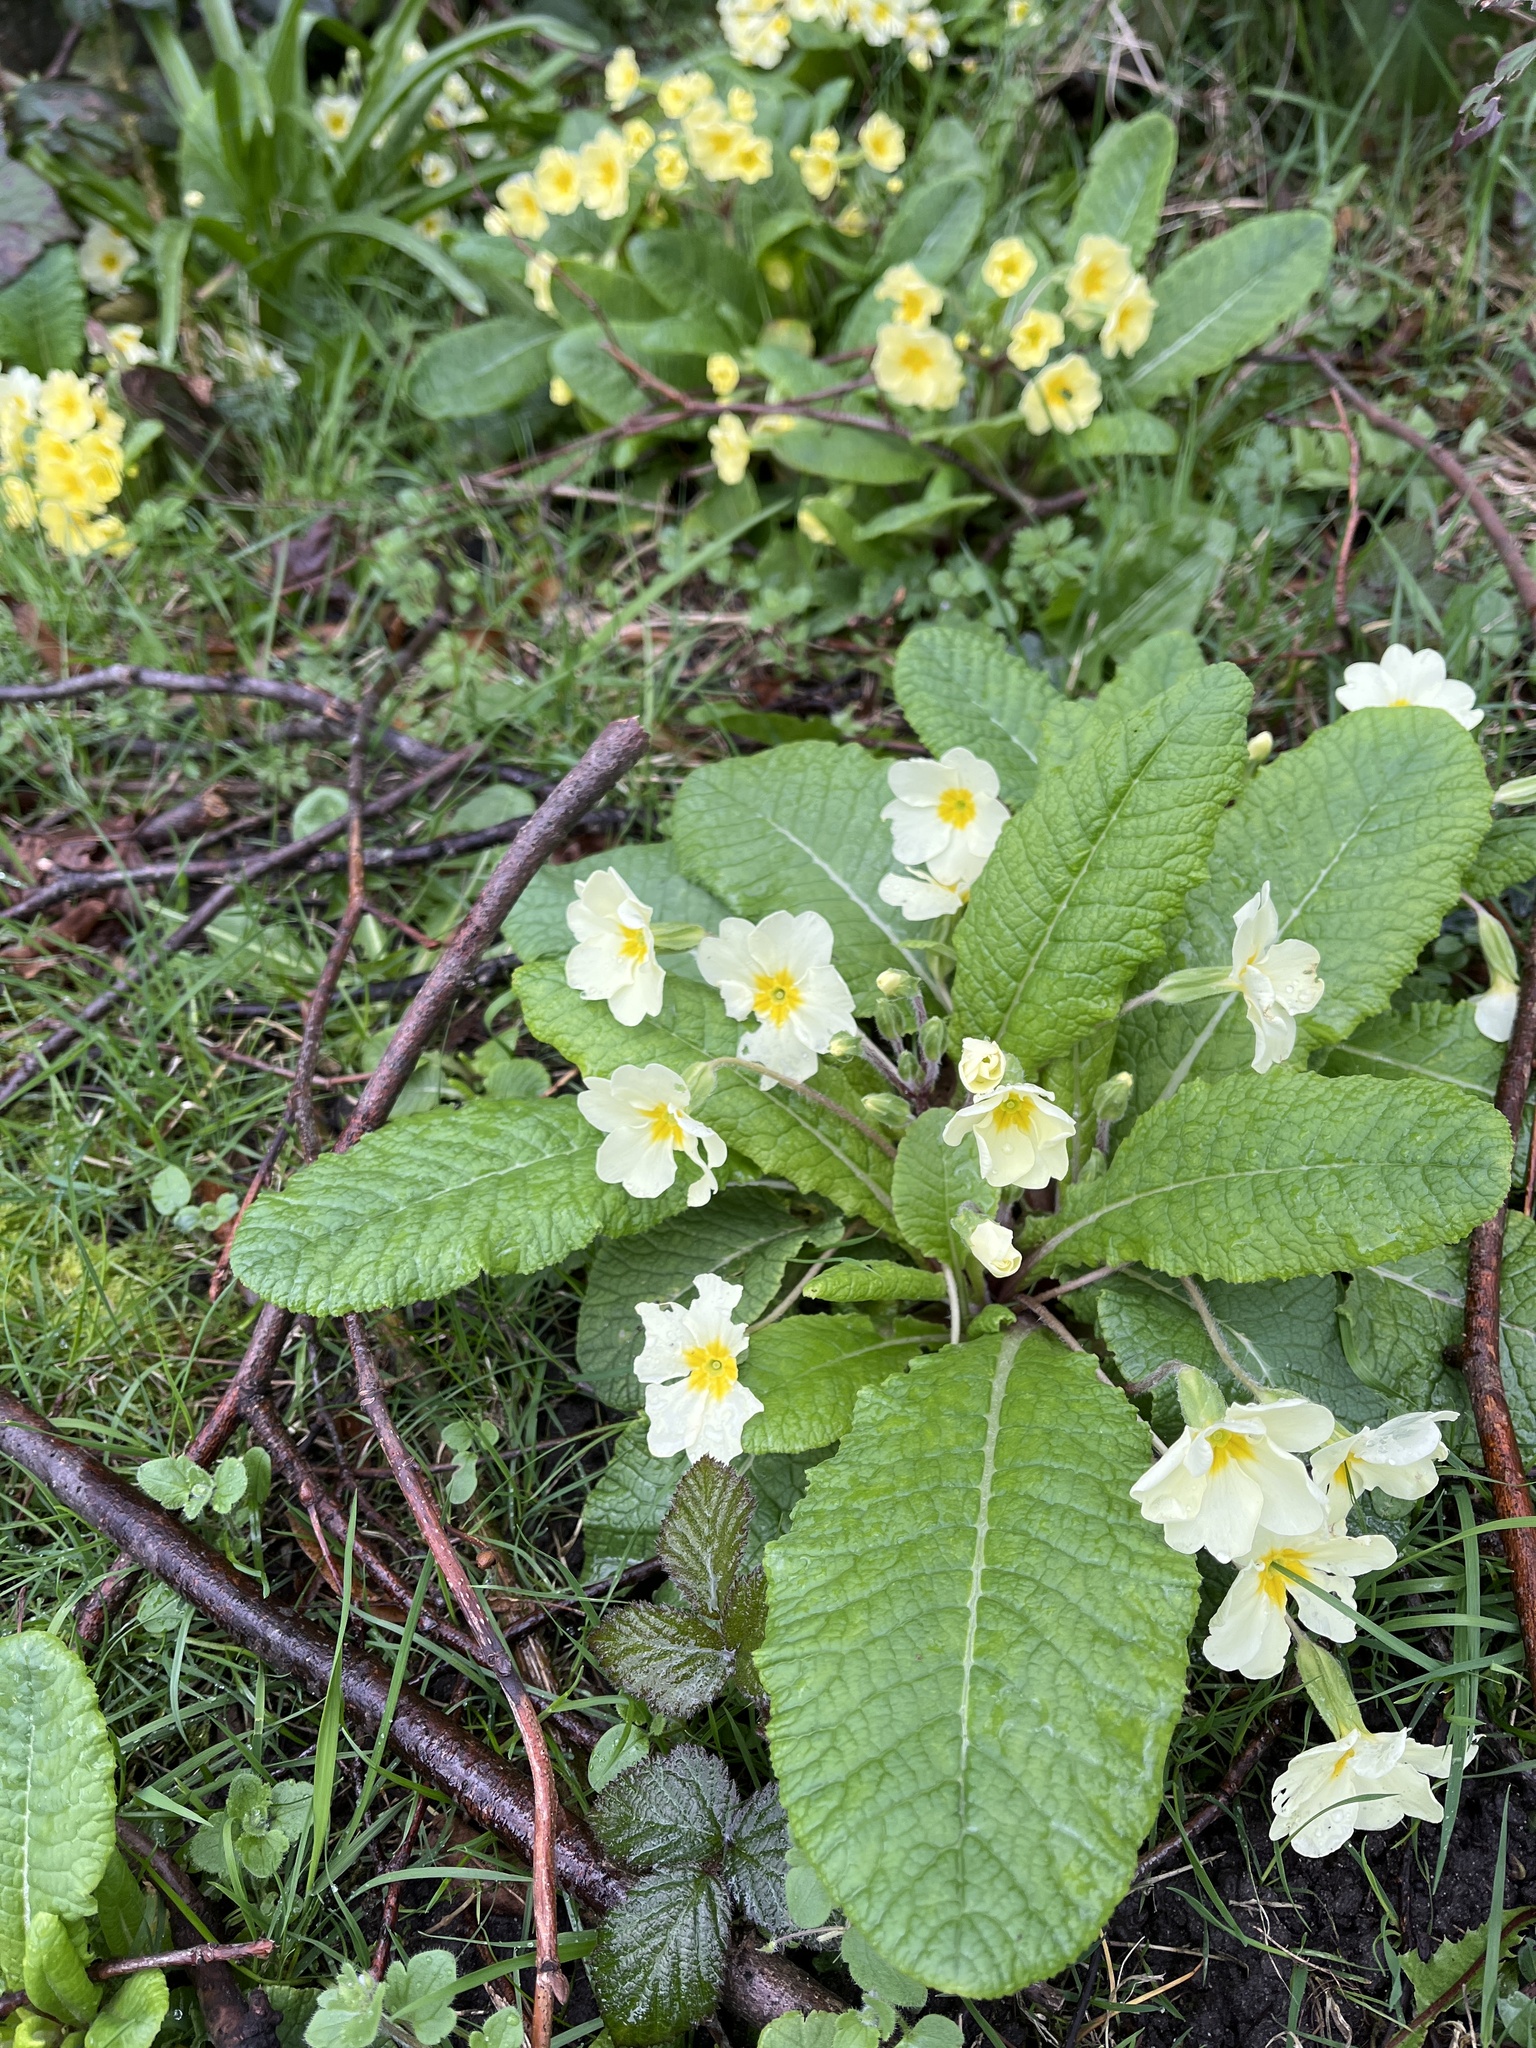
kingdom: Plantae
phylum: Tracheophyta
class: Magnoliopsida
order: Ericales
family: Primulaceae
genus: Primula
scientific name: Primula vulgaris
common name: Primrose
